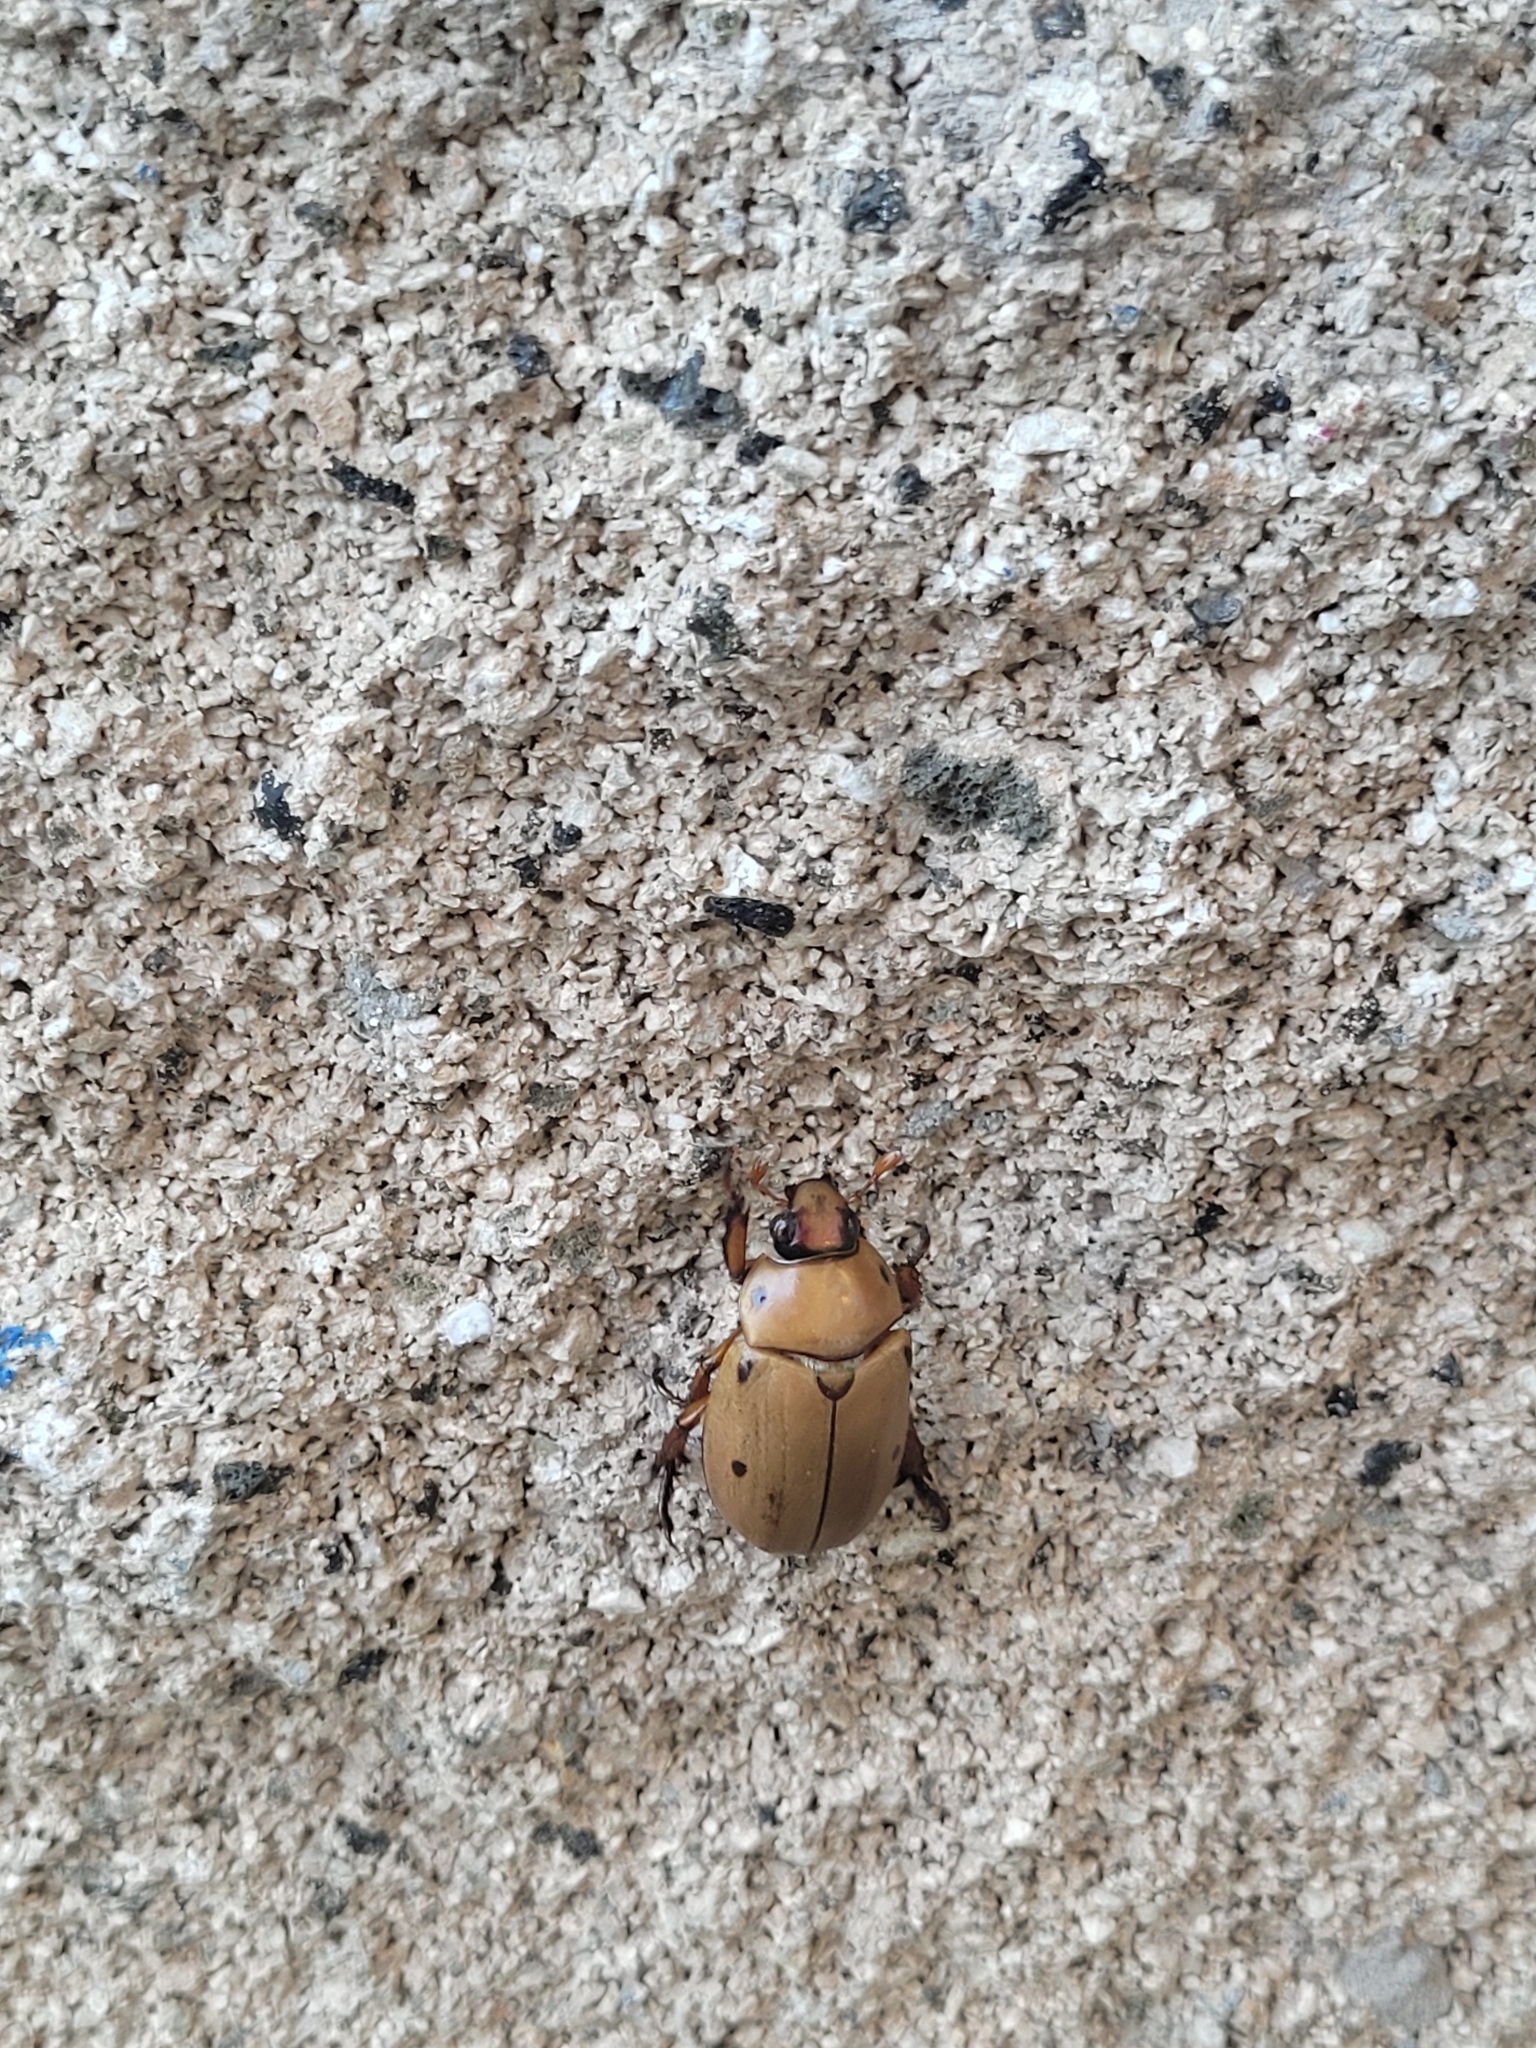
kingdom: Animalia
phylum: Arthropoda
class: Insecta
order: Coleoptera
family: Scarabaeidae
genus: Pelidnota
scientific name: Pelidnota punctata
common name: Grapevine beetle
